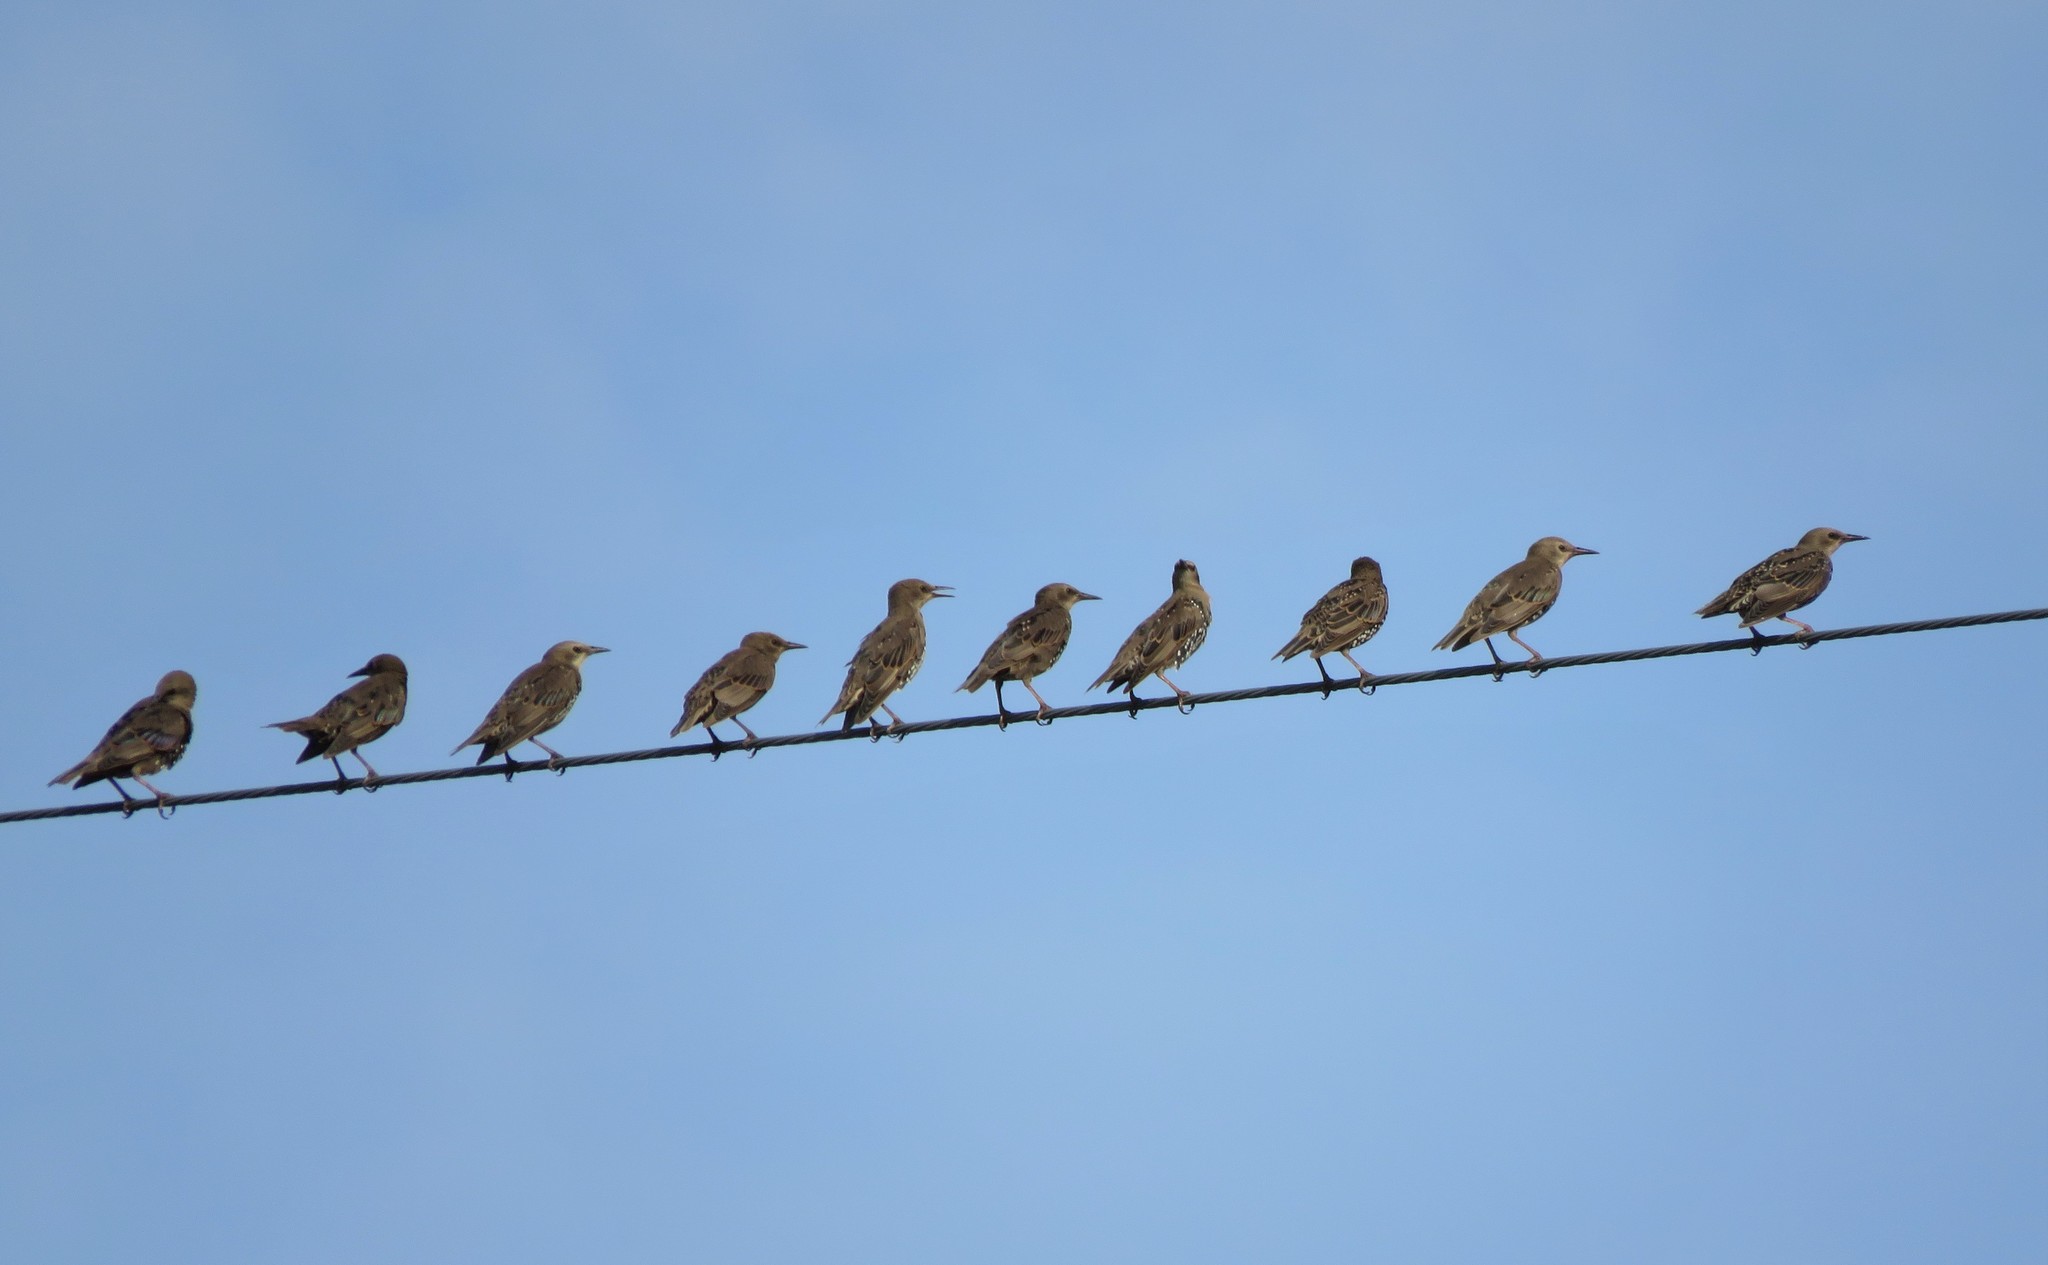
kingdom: Animalia
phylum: Chordata
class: Aves
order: Passeriformes
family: Sturnidae
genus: Sturnus
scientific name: Sturnus vulgaris
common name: Common starling
